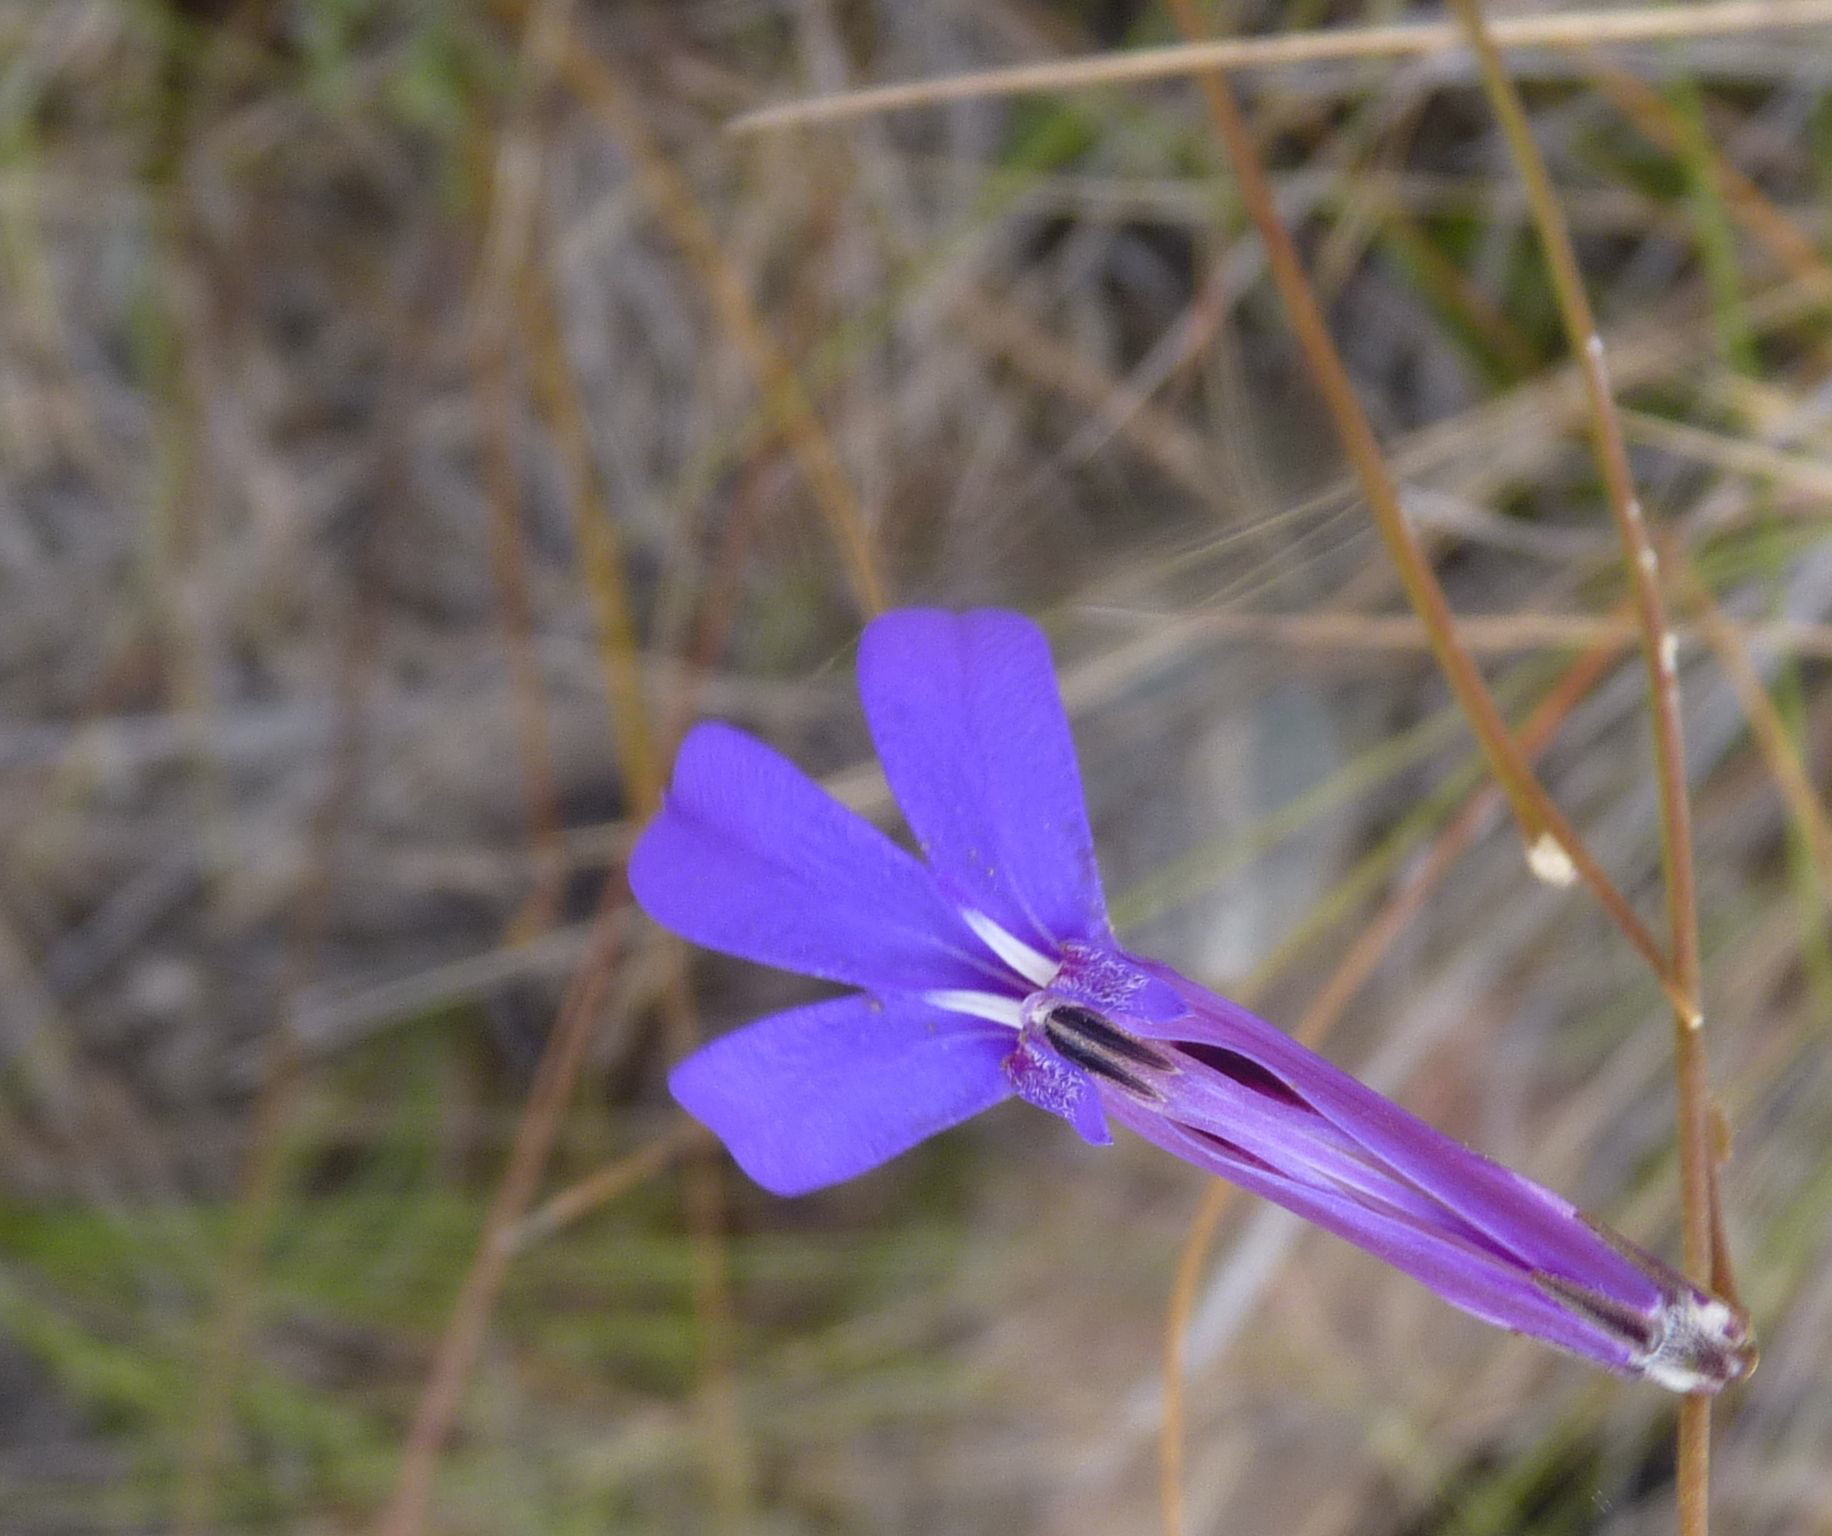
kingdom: Plantae
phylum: Tracheophyta
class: Magnoliopsida
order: Asterales
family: Campanulaceae
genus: Lobelia
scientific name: Lobelia tomentosa
